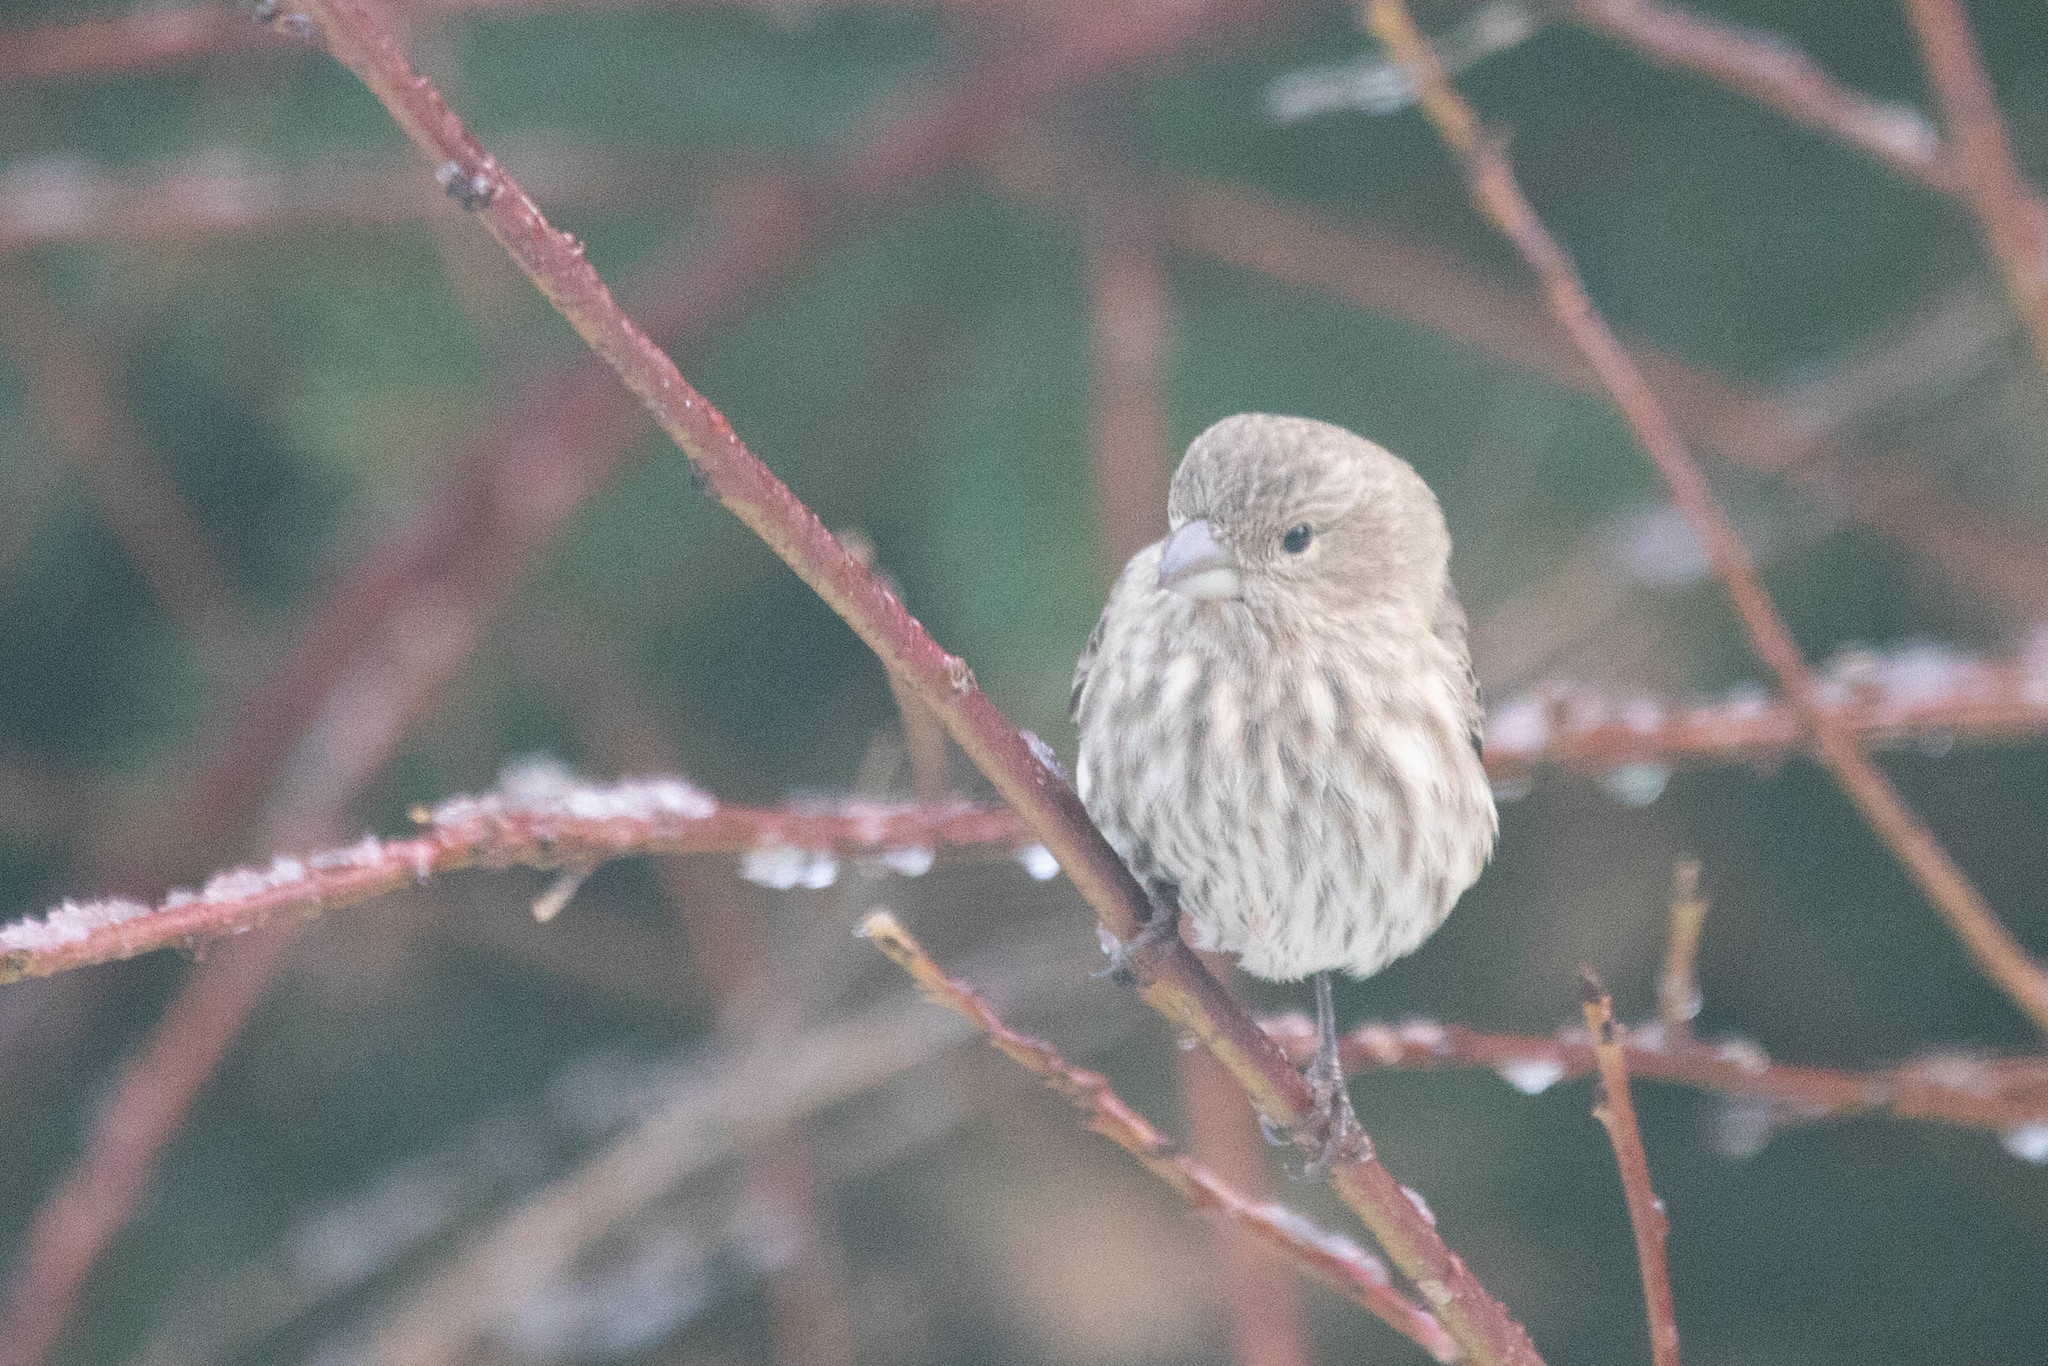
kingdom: Animalia
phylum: Chordata
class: Aves
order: Passeriformes
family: Fringillidae
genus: Haemorhous
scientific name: Haemorhous mexicanus
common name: House finch
